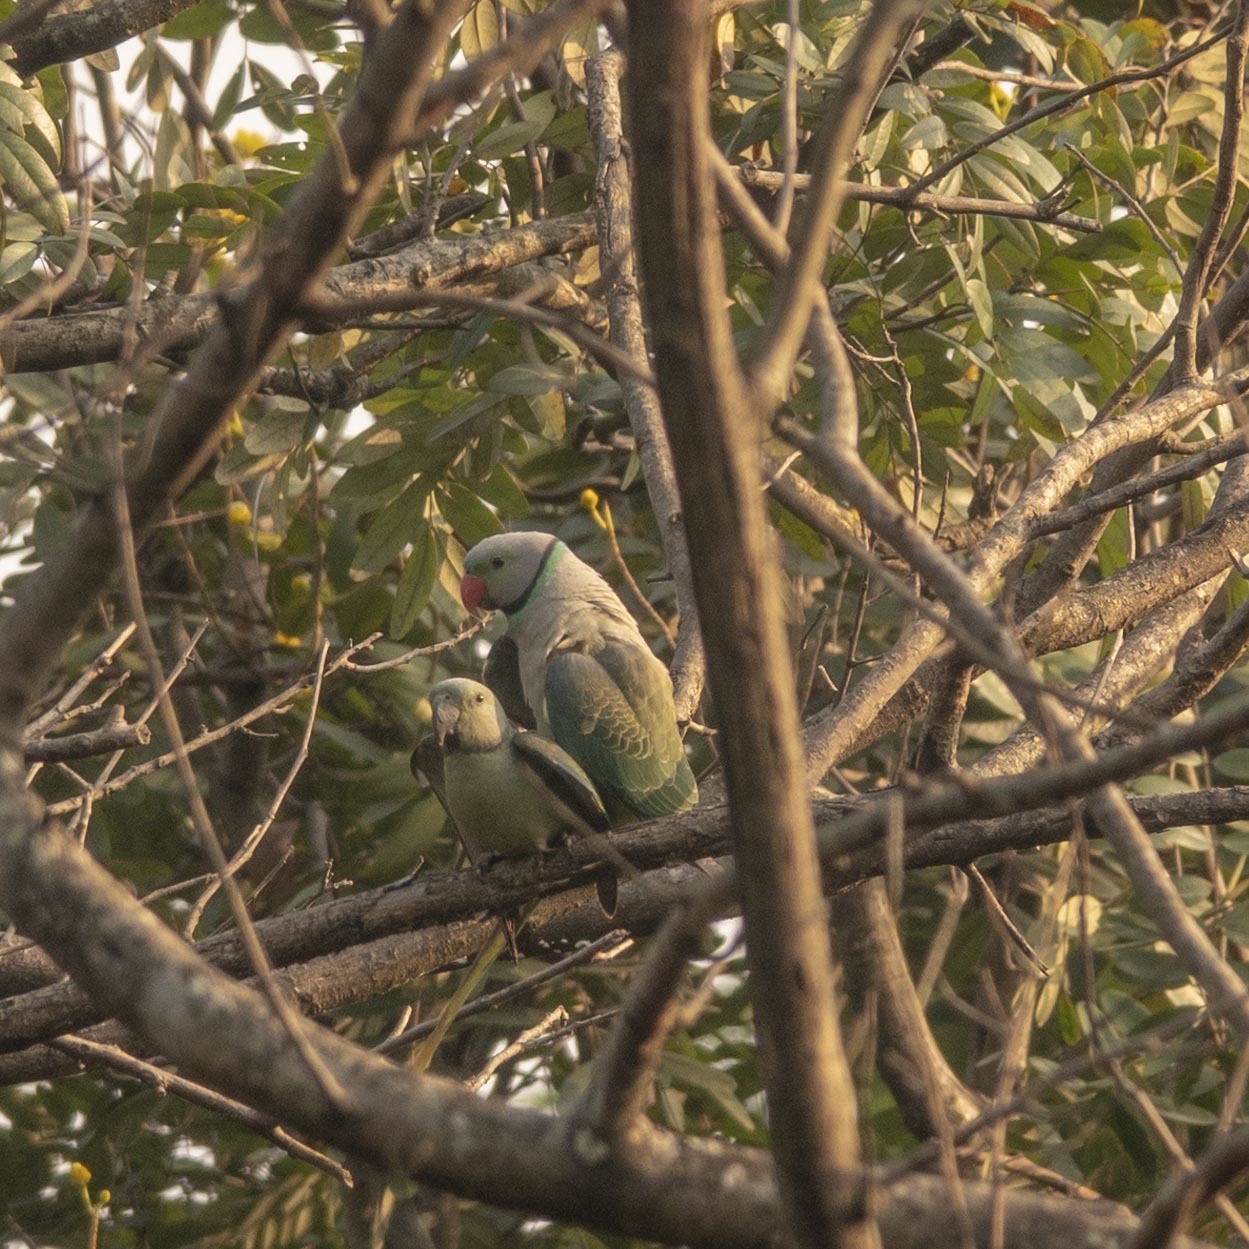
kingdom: Animalia
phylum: Chordata
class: Aves
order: Psittaciformes
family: Psittacidae
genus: Psittacula
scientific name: Psittacula columboides
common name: Blue-winged parakeet
